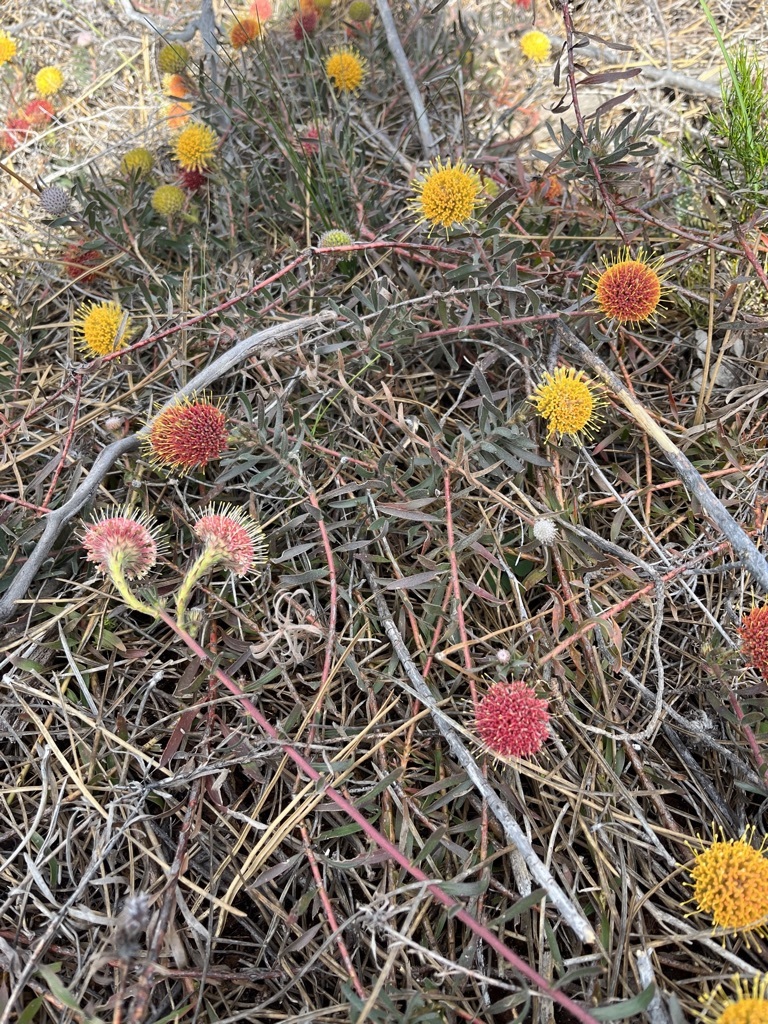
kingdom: Plantae
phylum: Tracheophyta
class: Magnoliopsida
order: Proteales
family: Proteaceae
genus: Leucospermum
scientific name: Leucospermum prostratum
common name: Yellow-trailing pincushion
